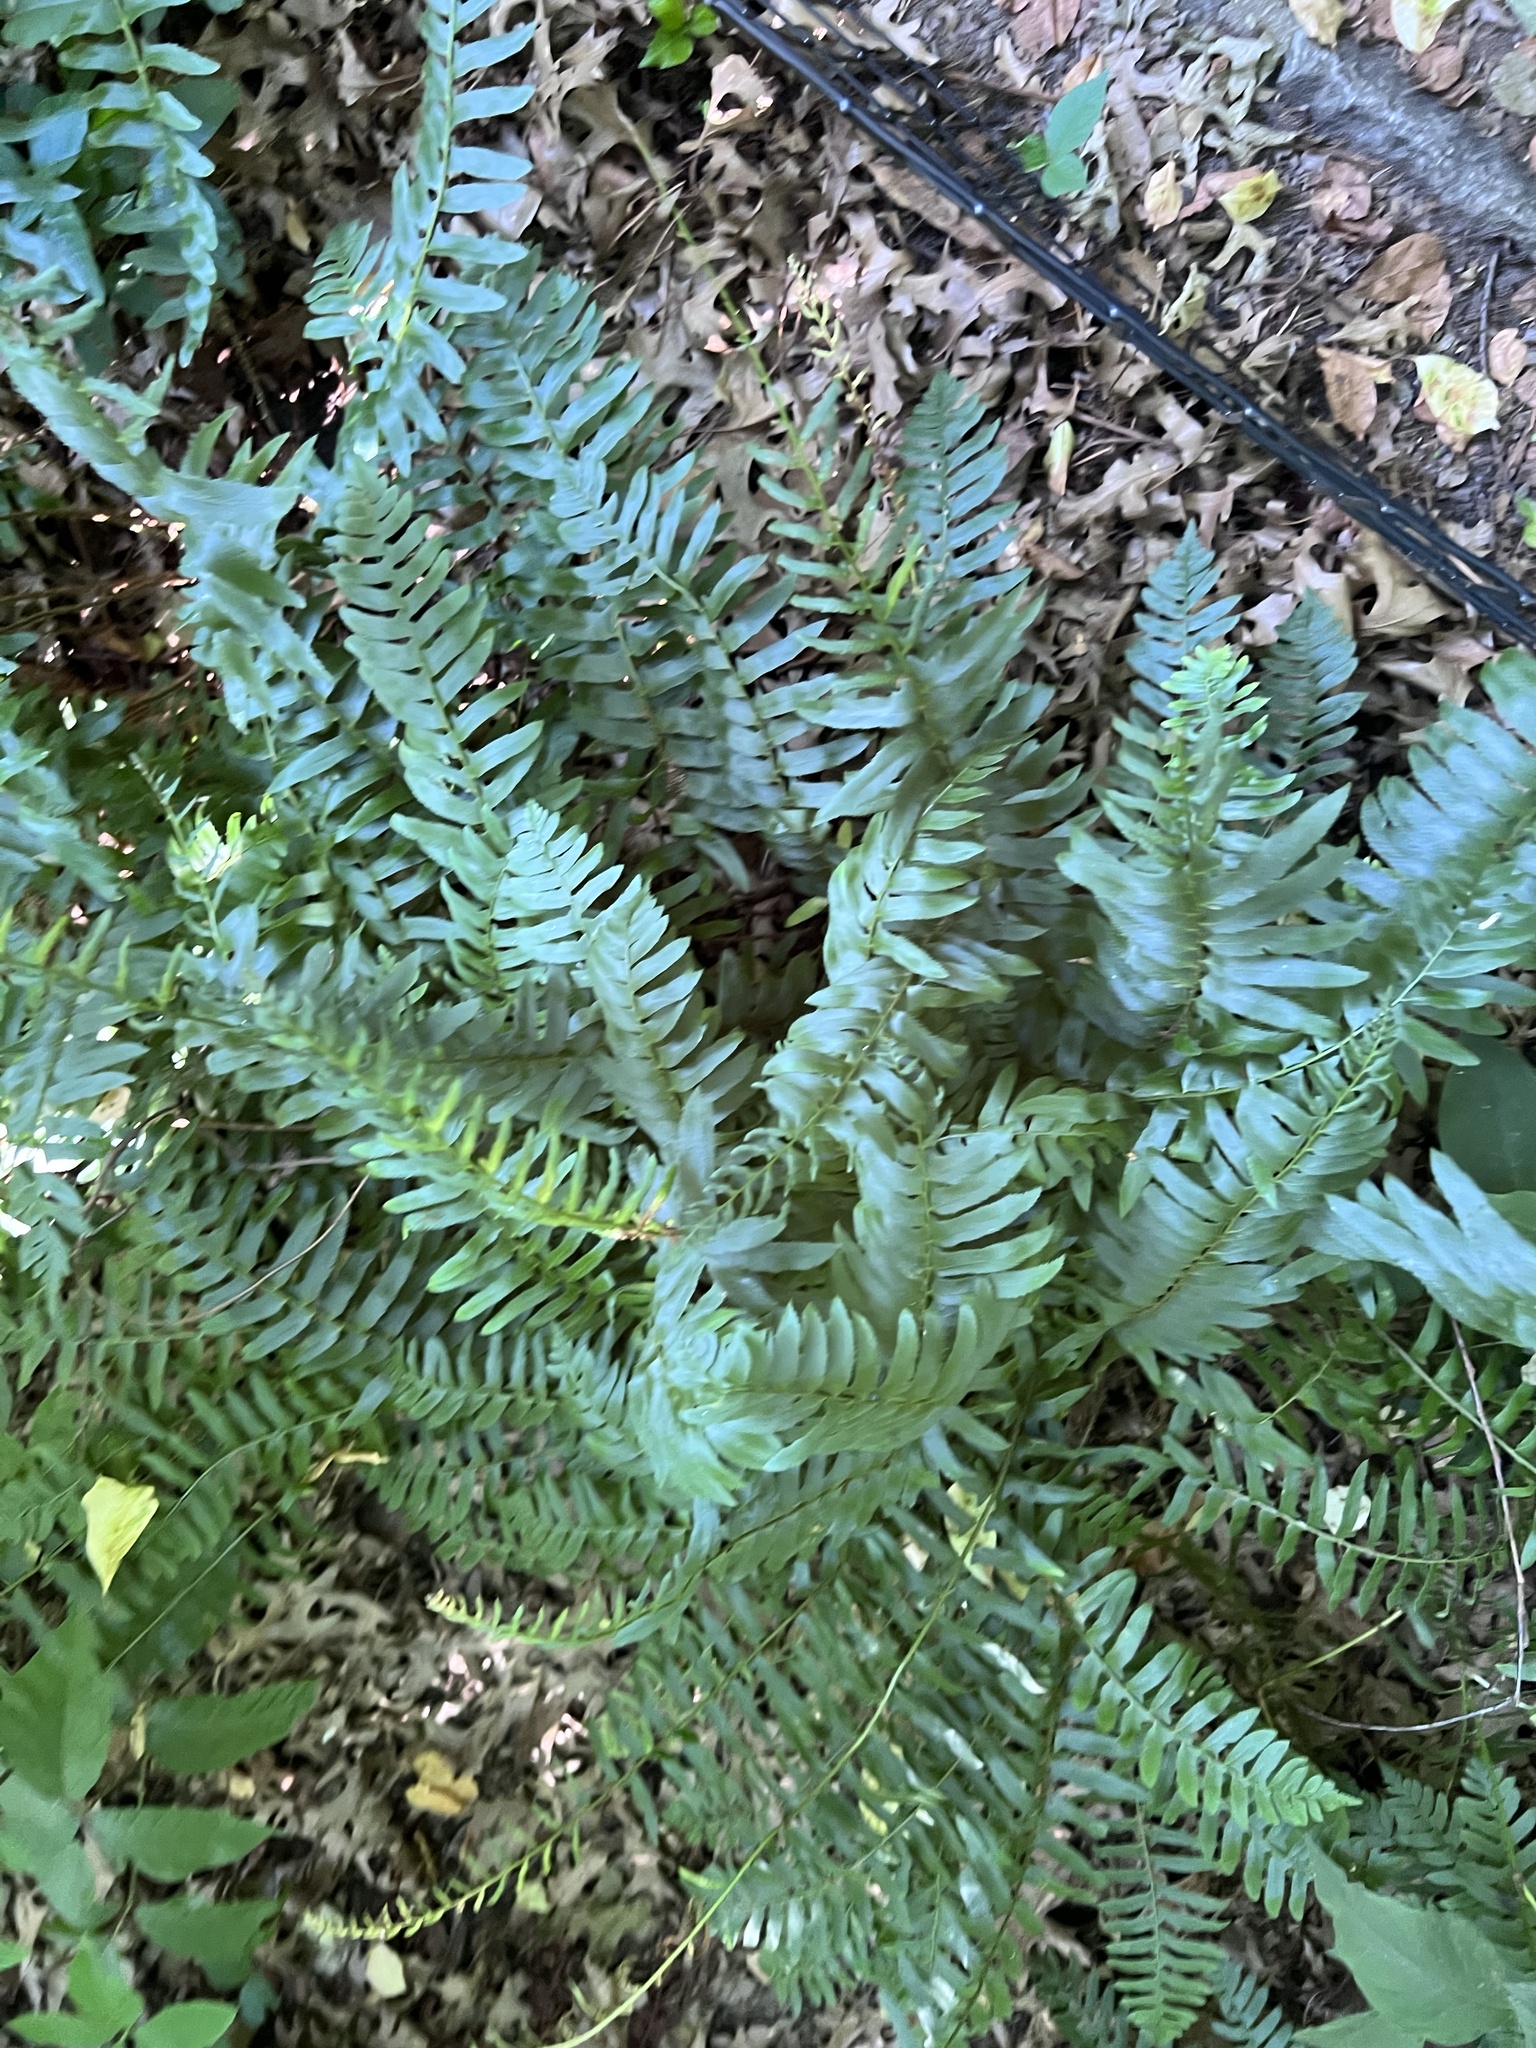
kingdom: Plantae
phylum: Tracheophyta
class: Polypodiopsida
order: Polypodiales
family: Dryopteridaceae
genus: Polystichum
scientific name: Polystichum acrostichoides
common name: Christmas fern
